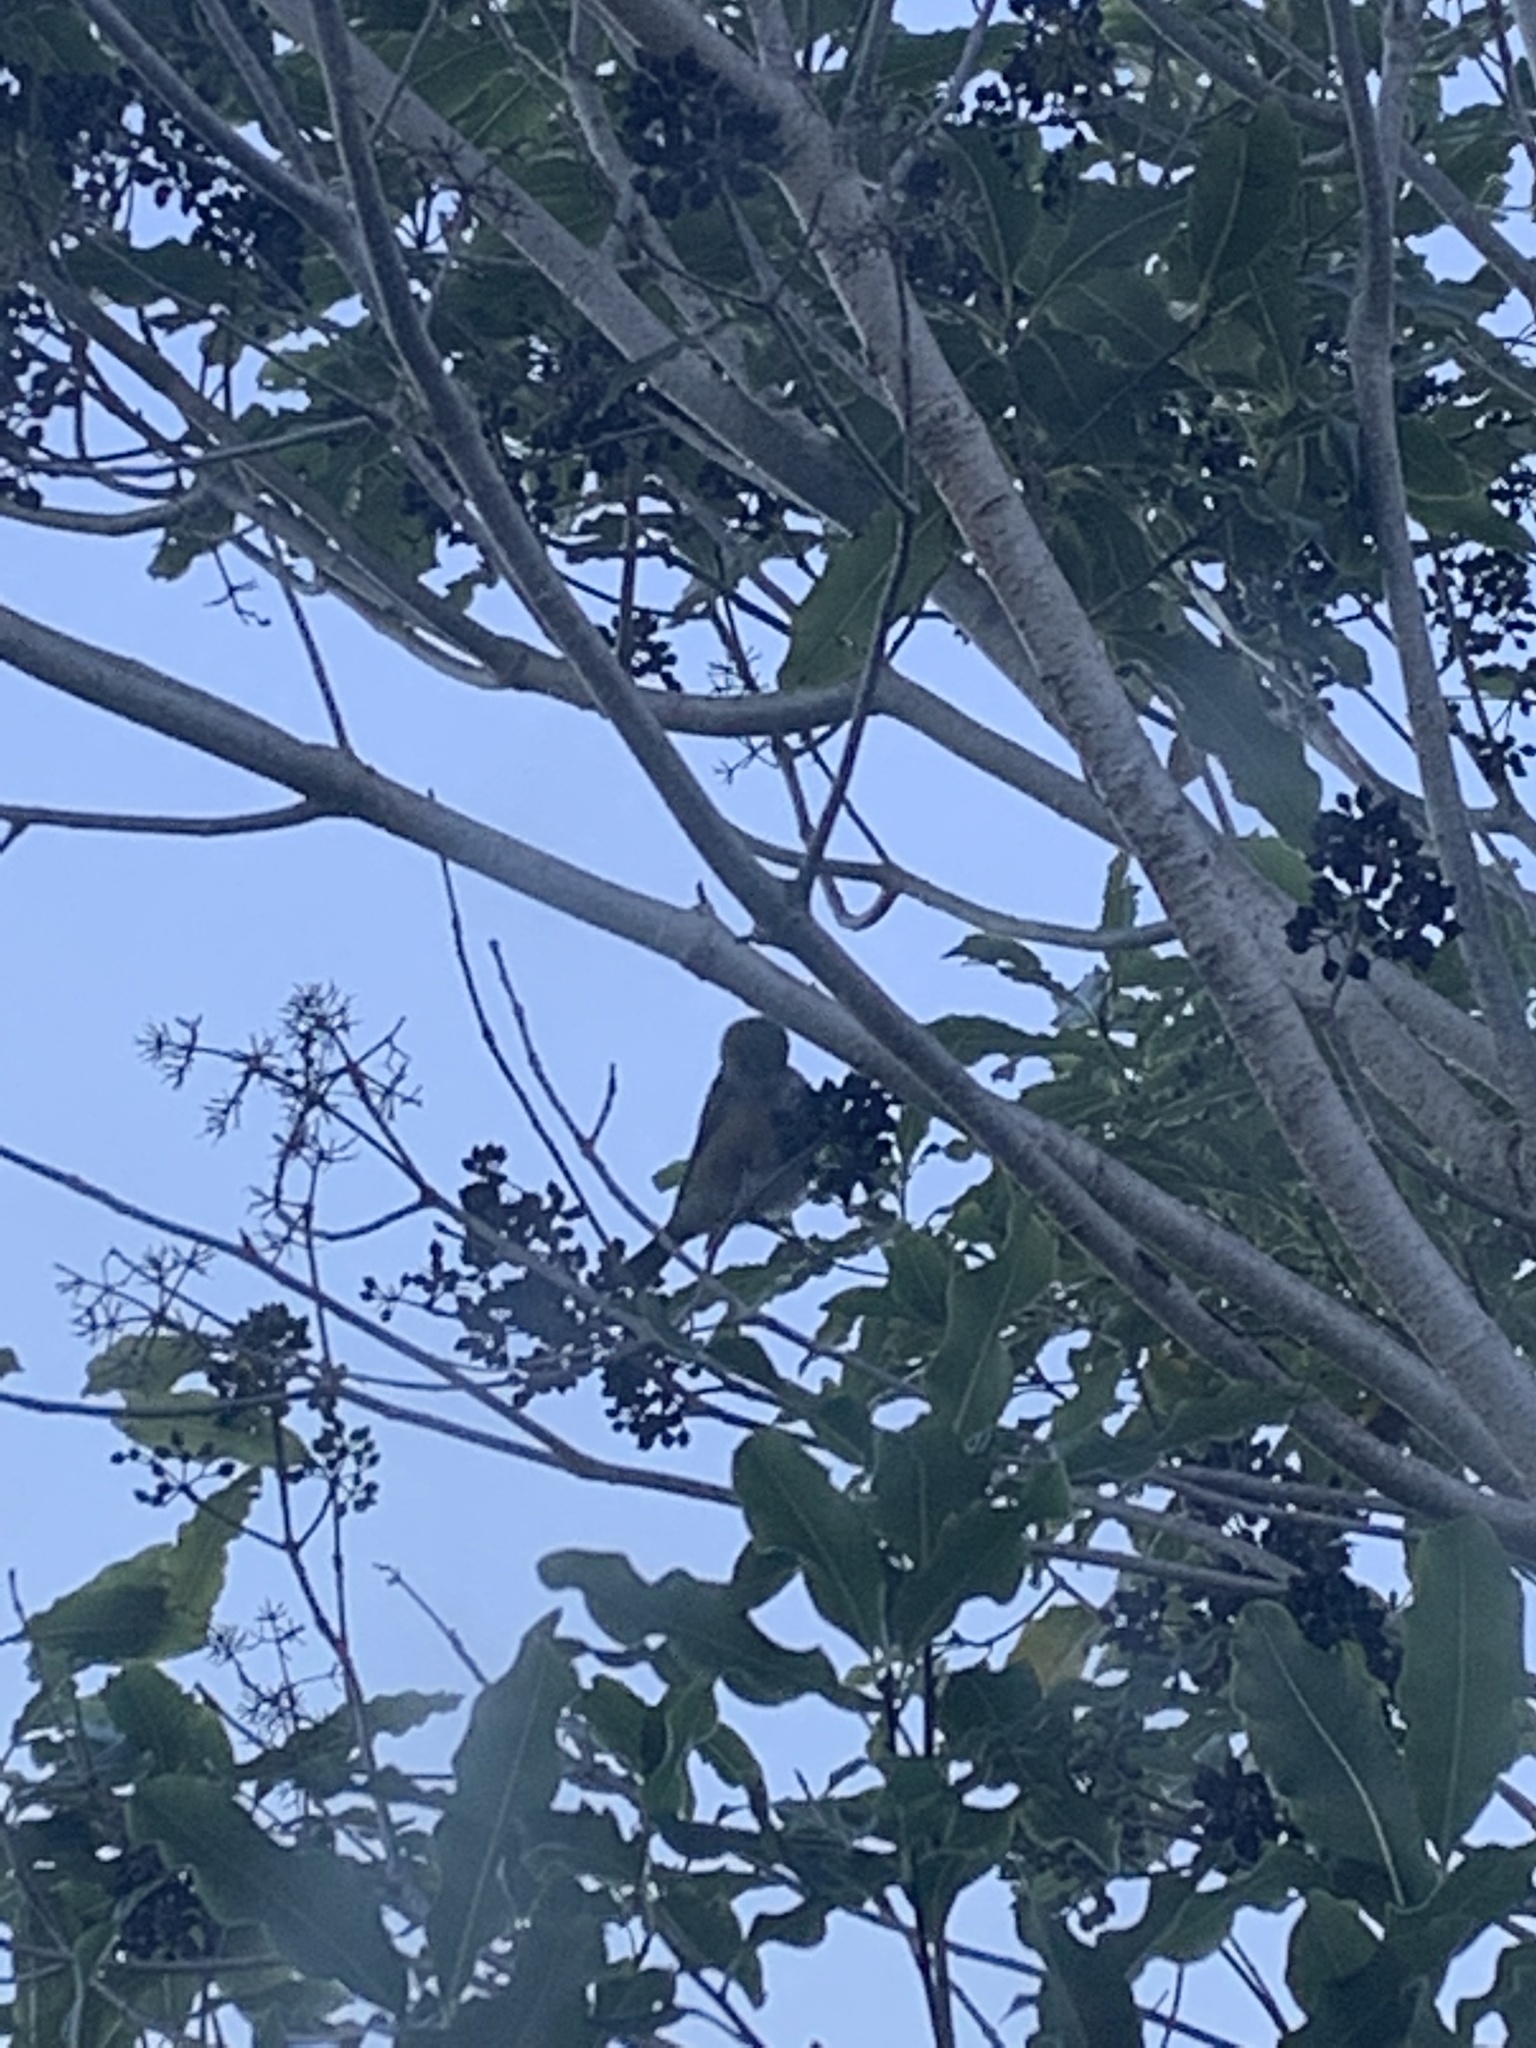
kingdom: Animalia
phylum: Chordata
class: Aves
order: Passeriformes
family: Zosteropidae
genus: Zosterops
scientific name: Zosterops lateralis
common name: Silvereye
